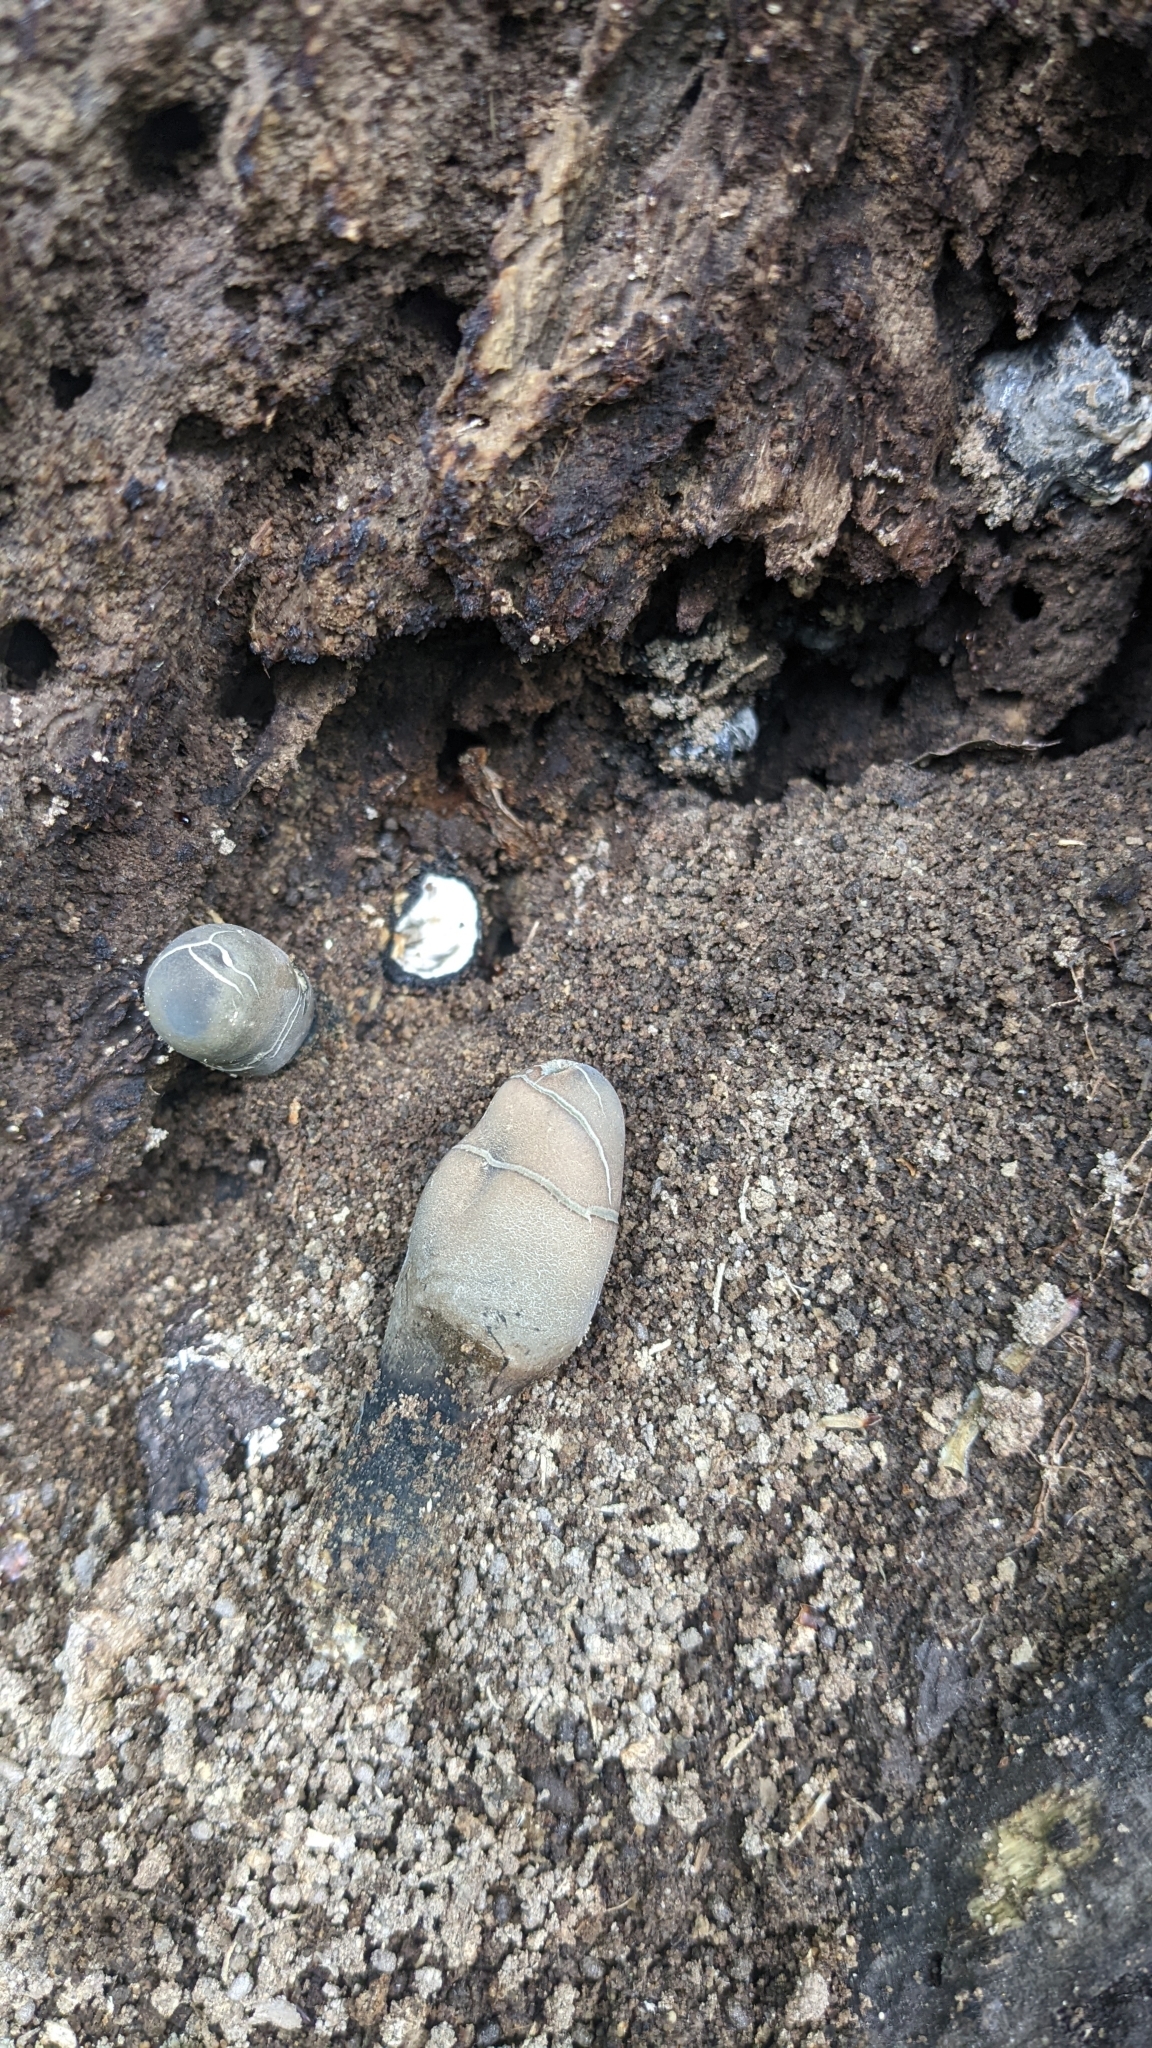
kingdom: Fungi
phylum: Ascomycota
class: Sordariomycetes
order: Xylariales
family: Xylariaceae
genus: Xylaria
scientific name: Xylaria polymorpha
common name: Dead man's fingers
